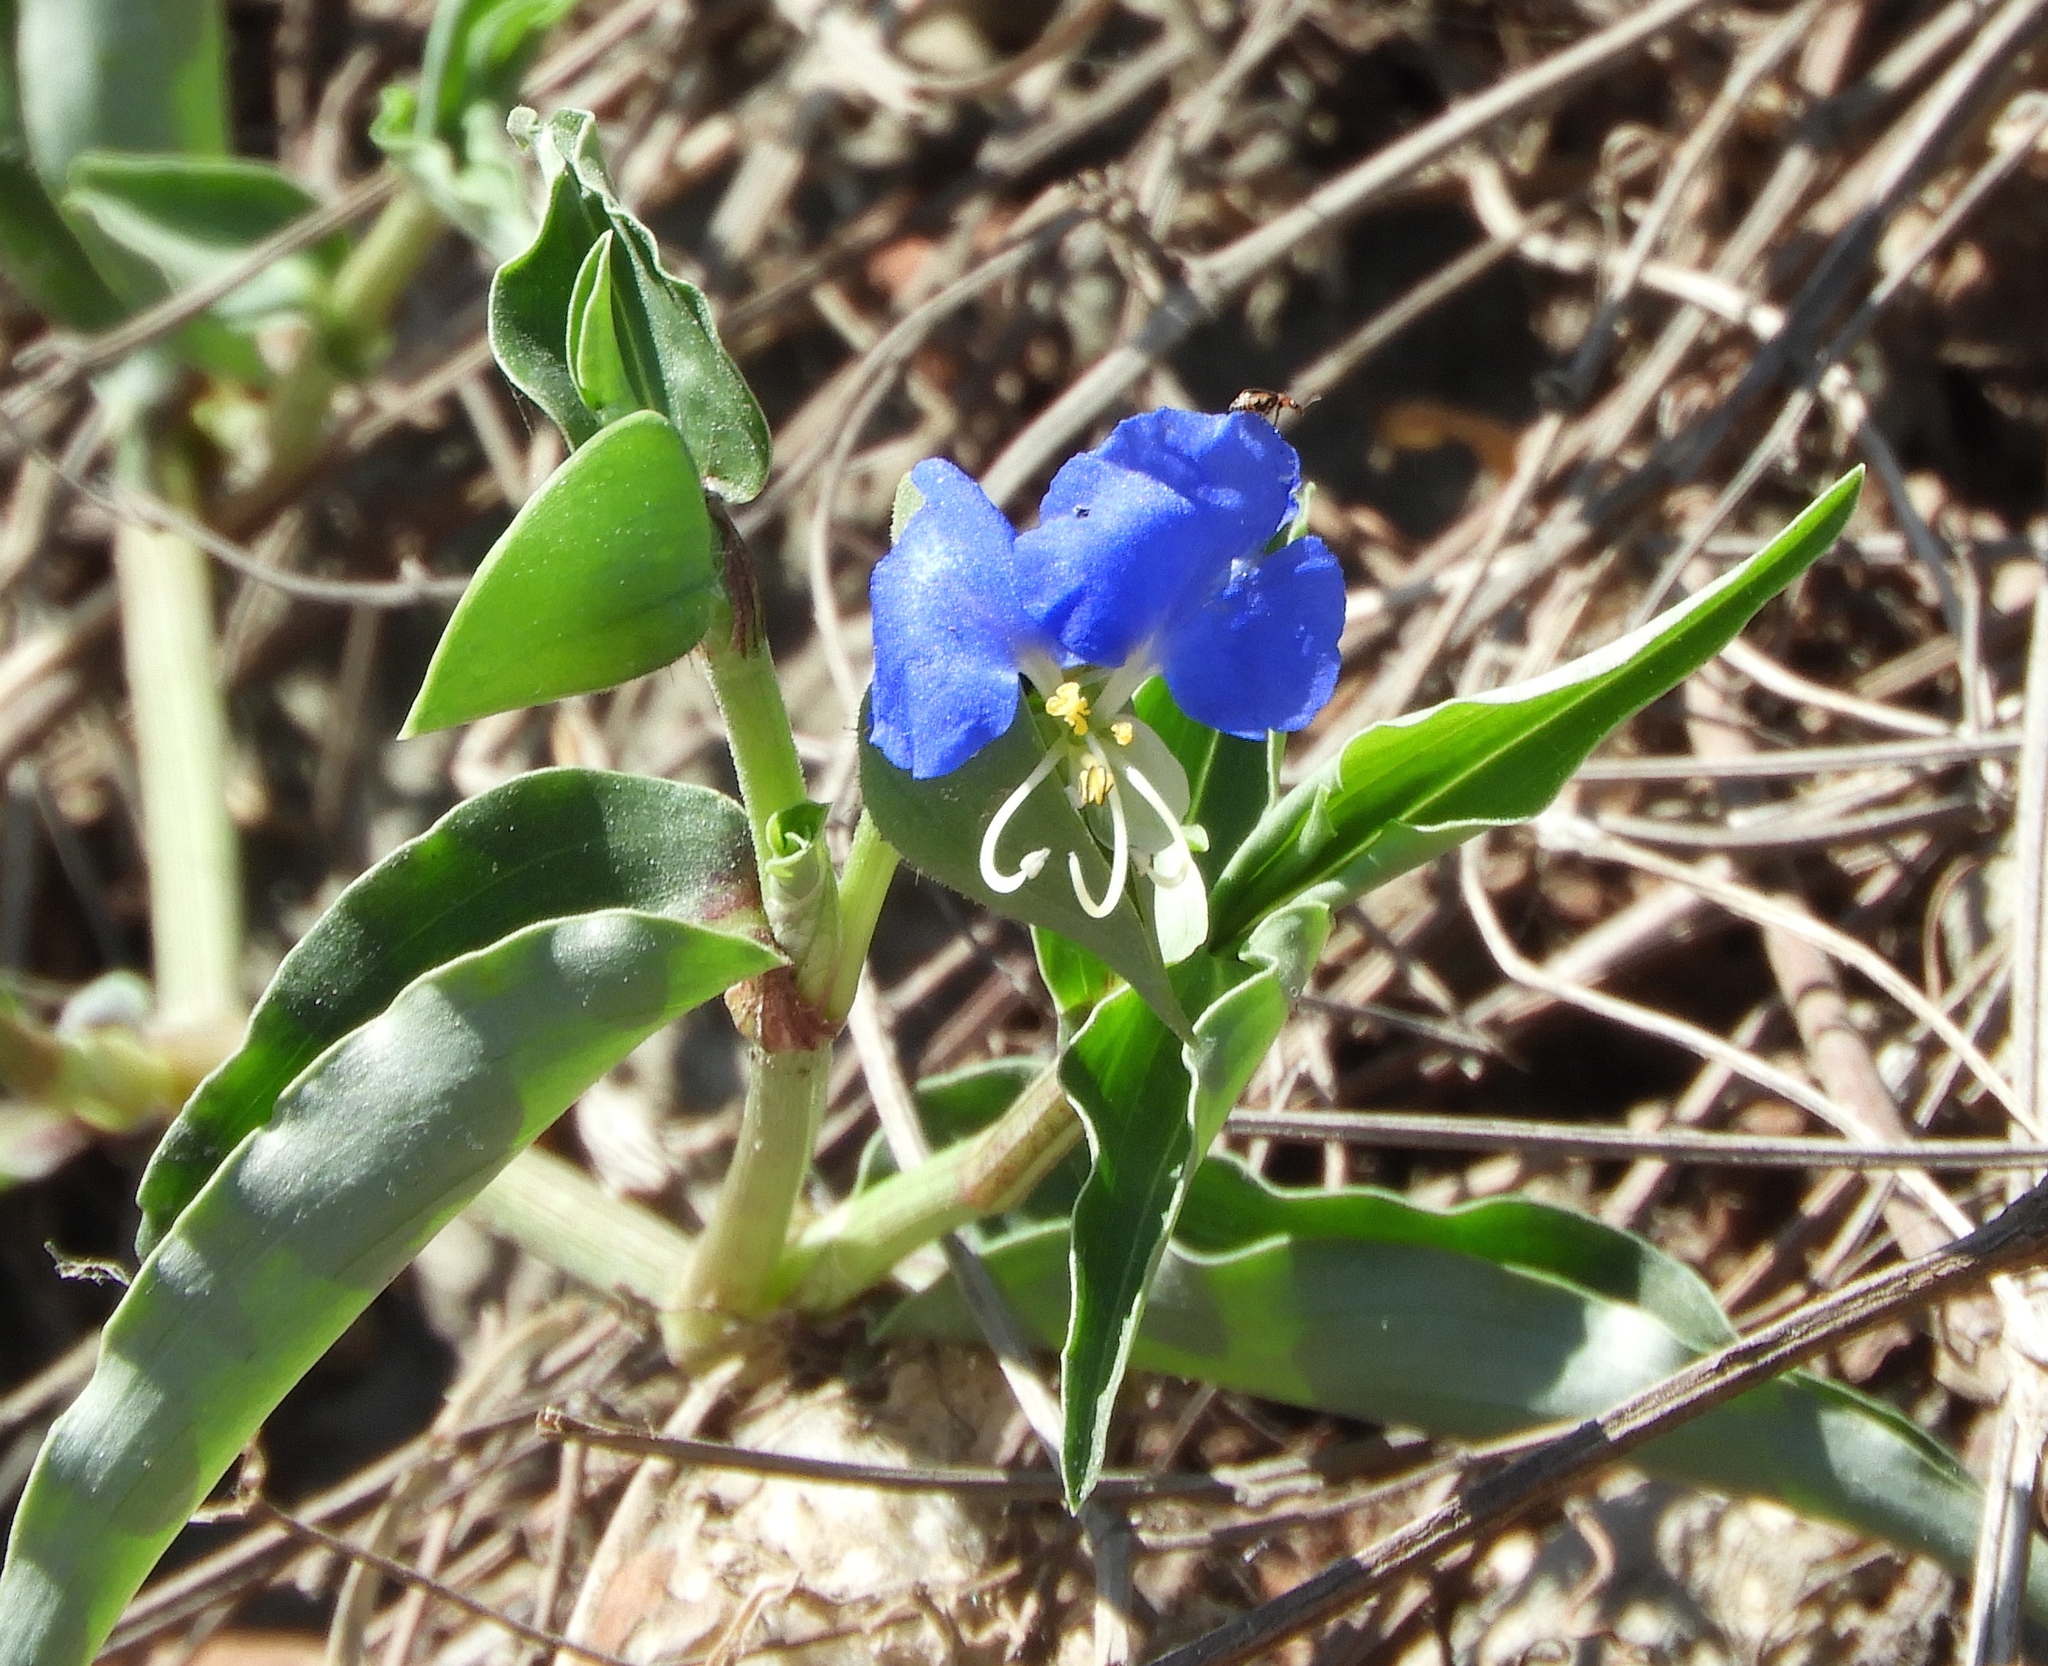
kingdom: Plantae
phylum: Tracheophyta
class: Liliopsida
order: Commelinales
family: Commelinaceae
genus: Commelina
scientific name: Commelina erecta
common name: Blousel blommetjie
